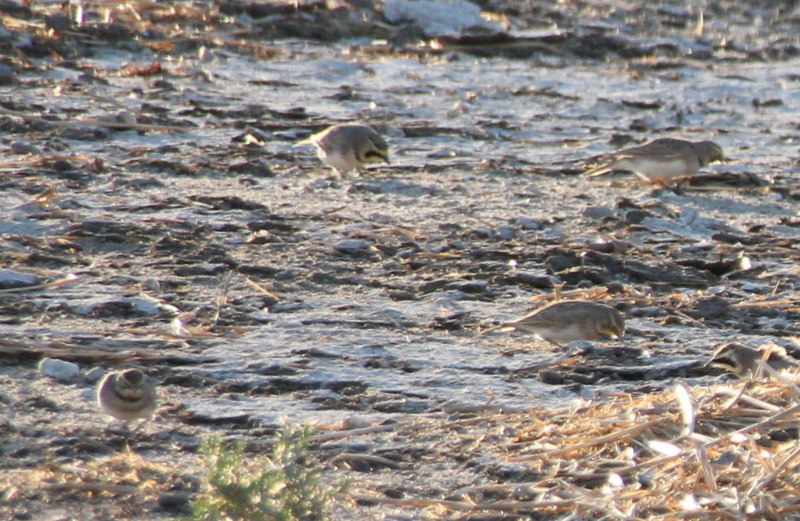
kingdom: Animalia
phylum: Chordata
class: Aves
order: Passeriformes
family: Alaudidae
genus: Eremophila
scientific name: Eremophila alpestris
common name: Horned lark
